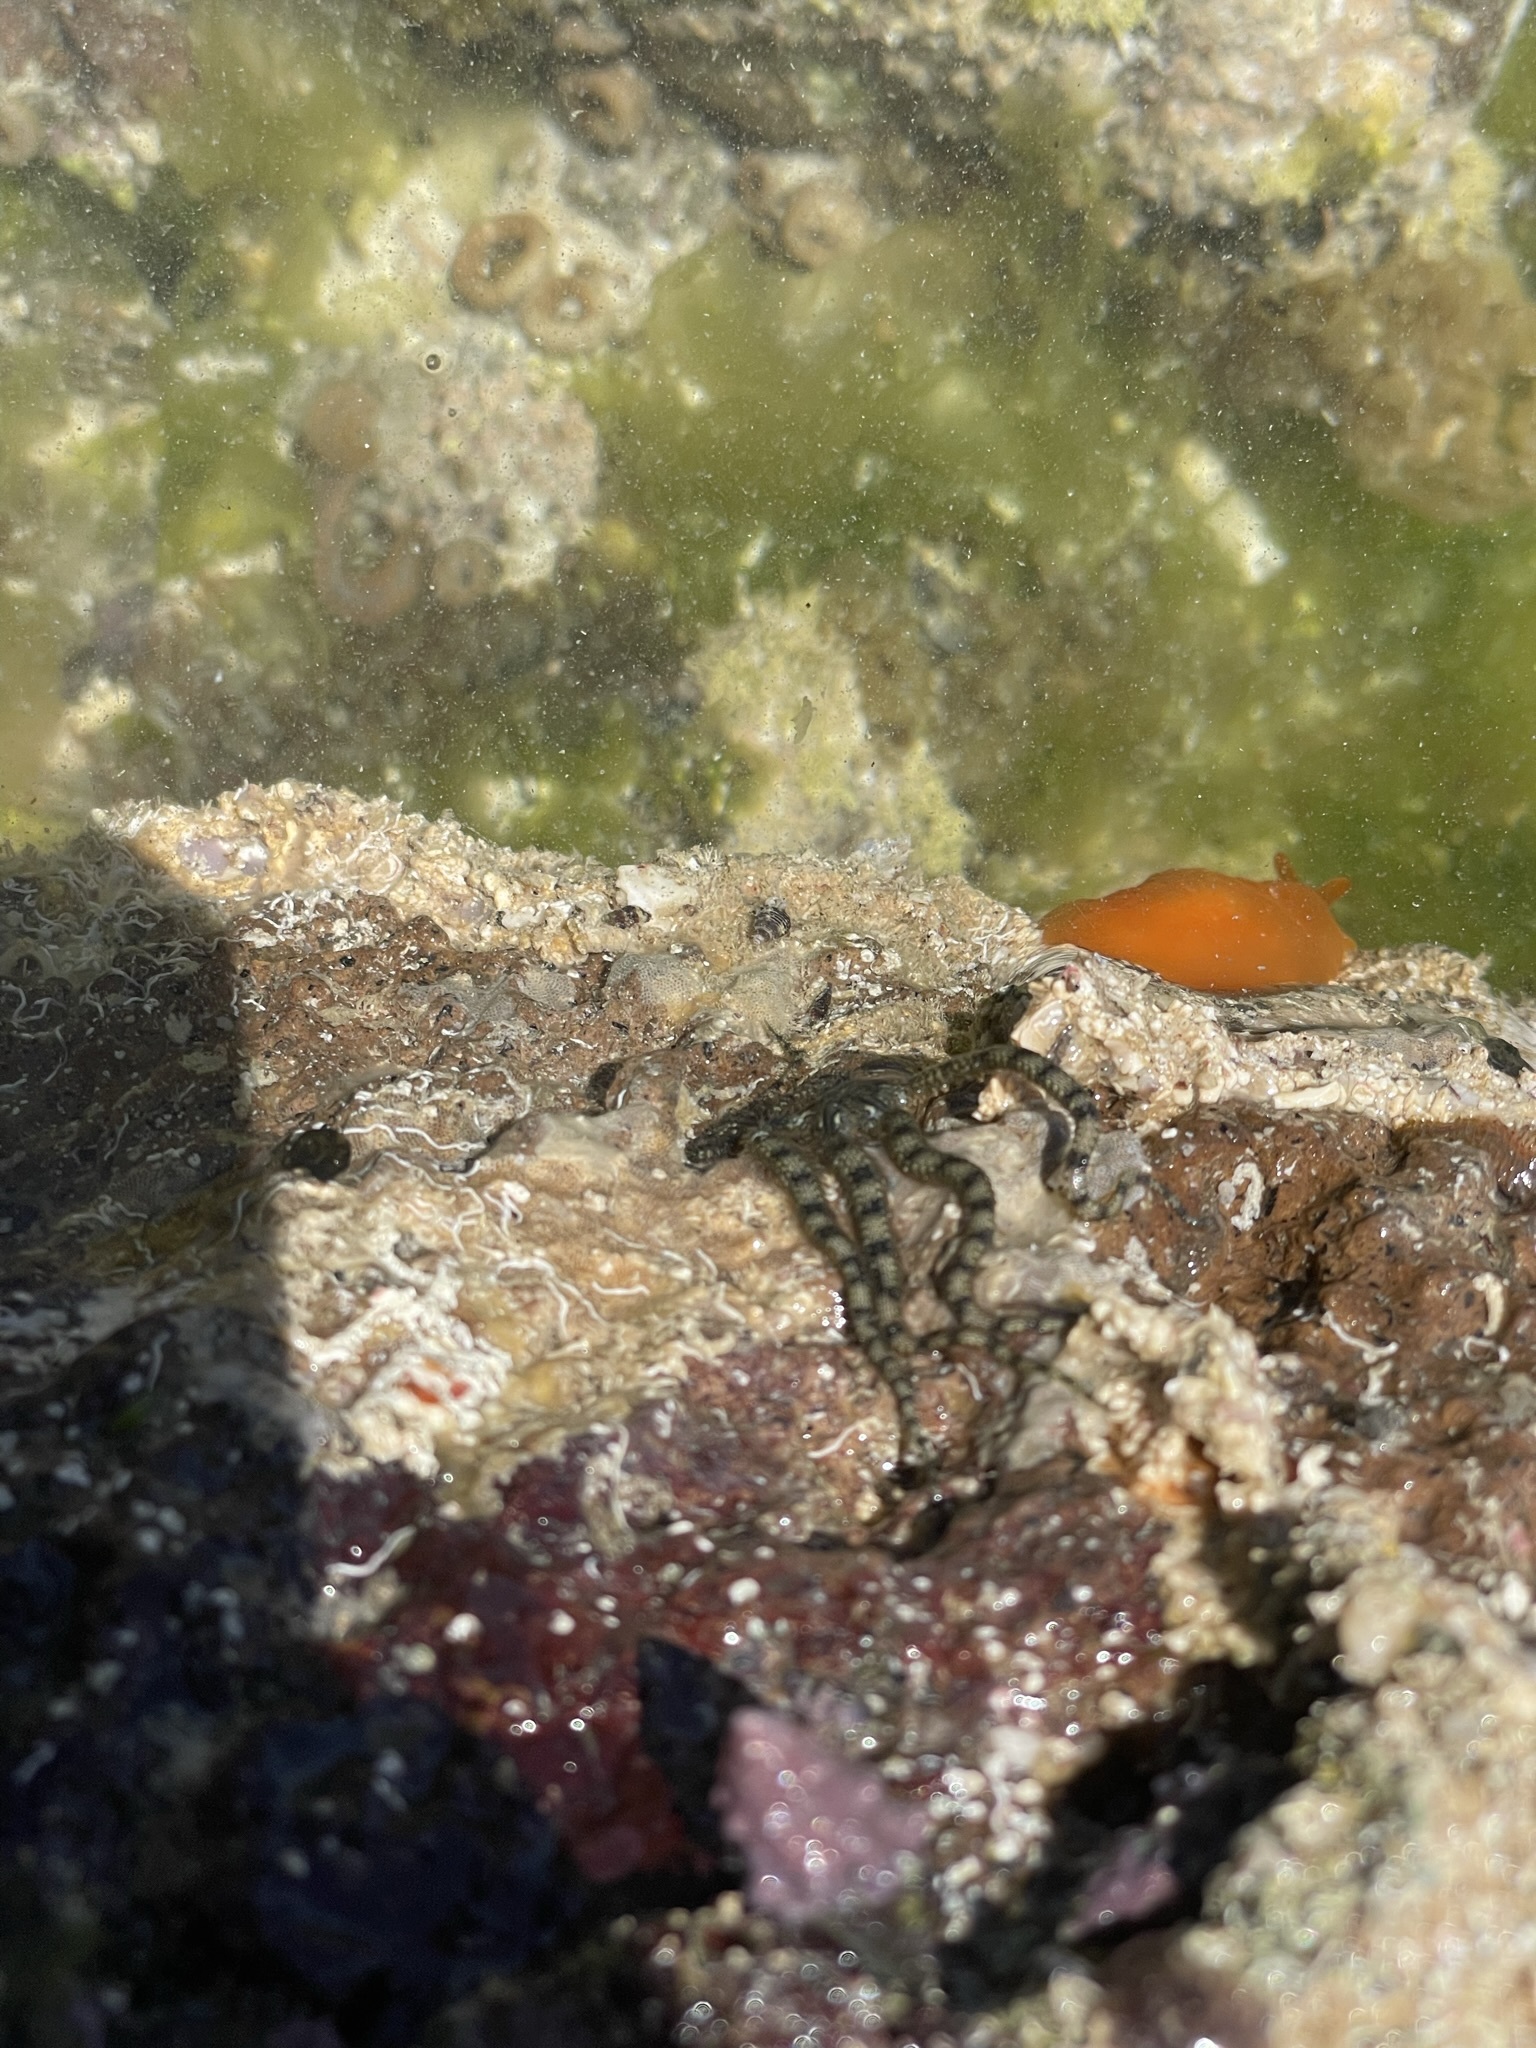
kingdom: Animalia
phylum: Echinodermata
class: Ophiuroidea
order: Ophiacanthida
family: Ophiocomidae
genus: Ophiocomella
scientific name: Ophiocomella alexandri
